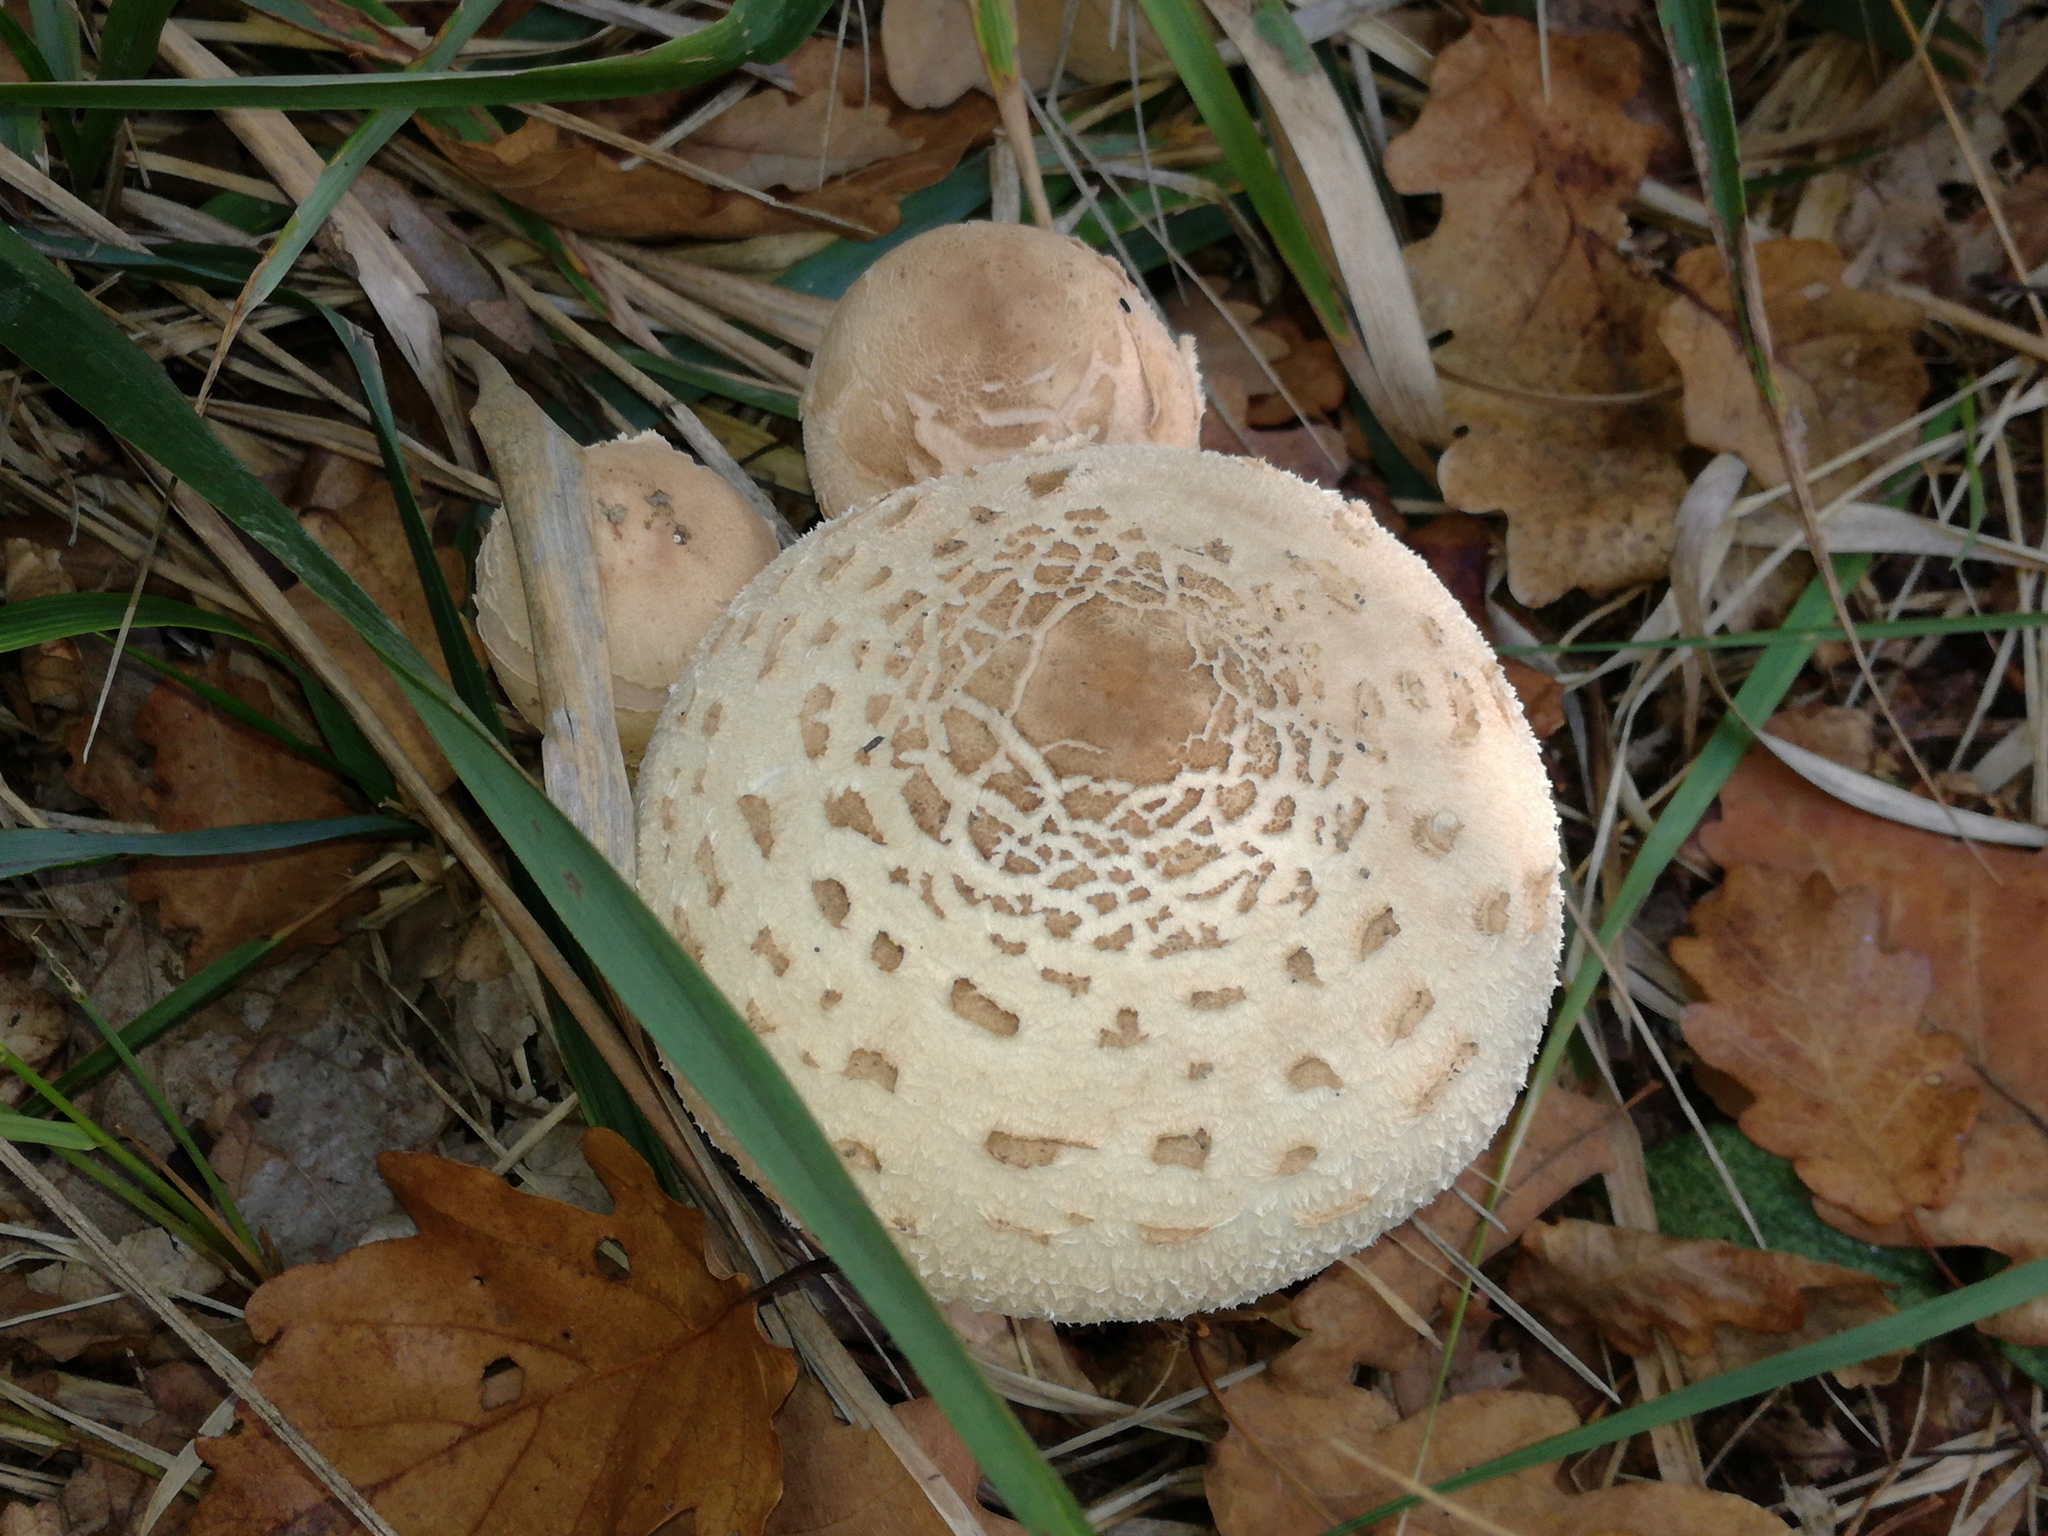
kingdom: Fungi
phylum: Basidiomycota
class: Agaricomycetes
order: Agaricales
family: Agaricaceae
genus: Macrolepiota
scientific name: Macrolepiota procera
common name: Parasol
